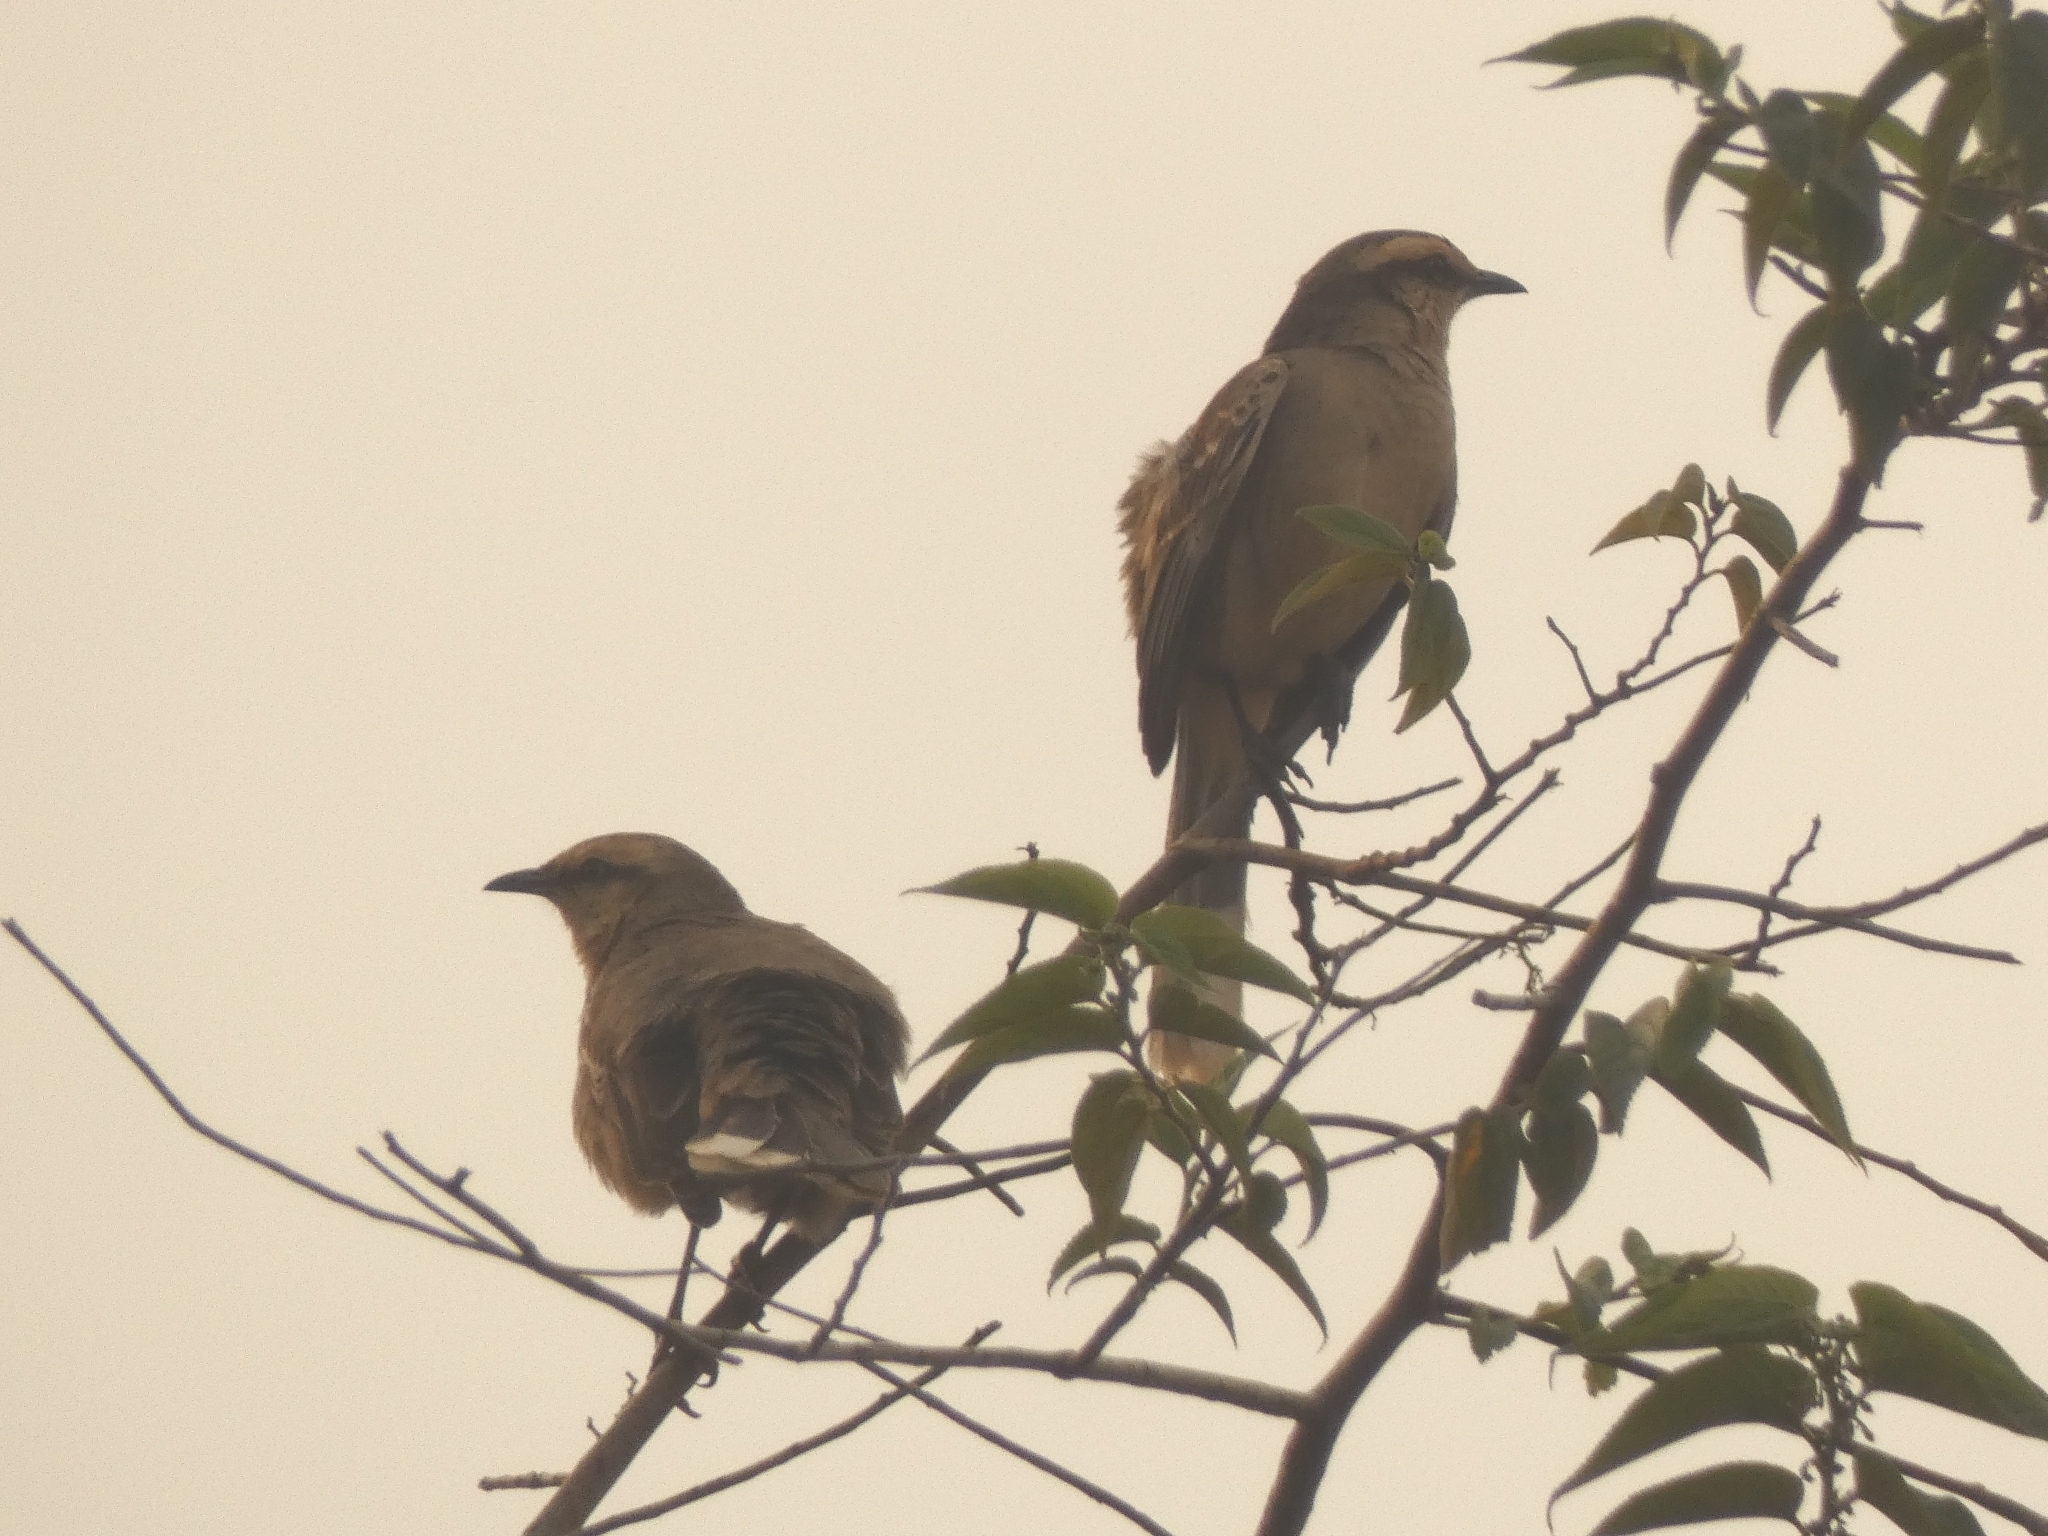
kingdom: Animalia
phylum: Chordata
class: Aves
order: Passeriformes
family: Mimidae
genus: Mimus
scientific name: Mimus saturninus
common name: Chalk-browed mockingbird
